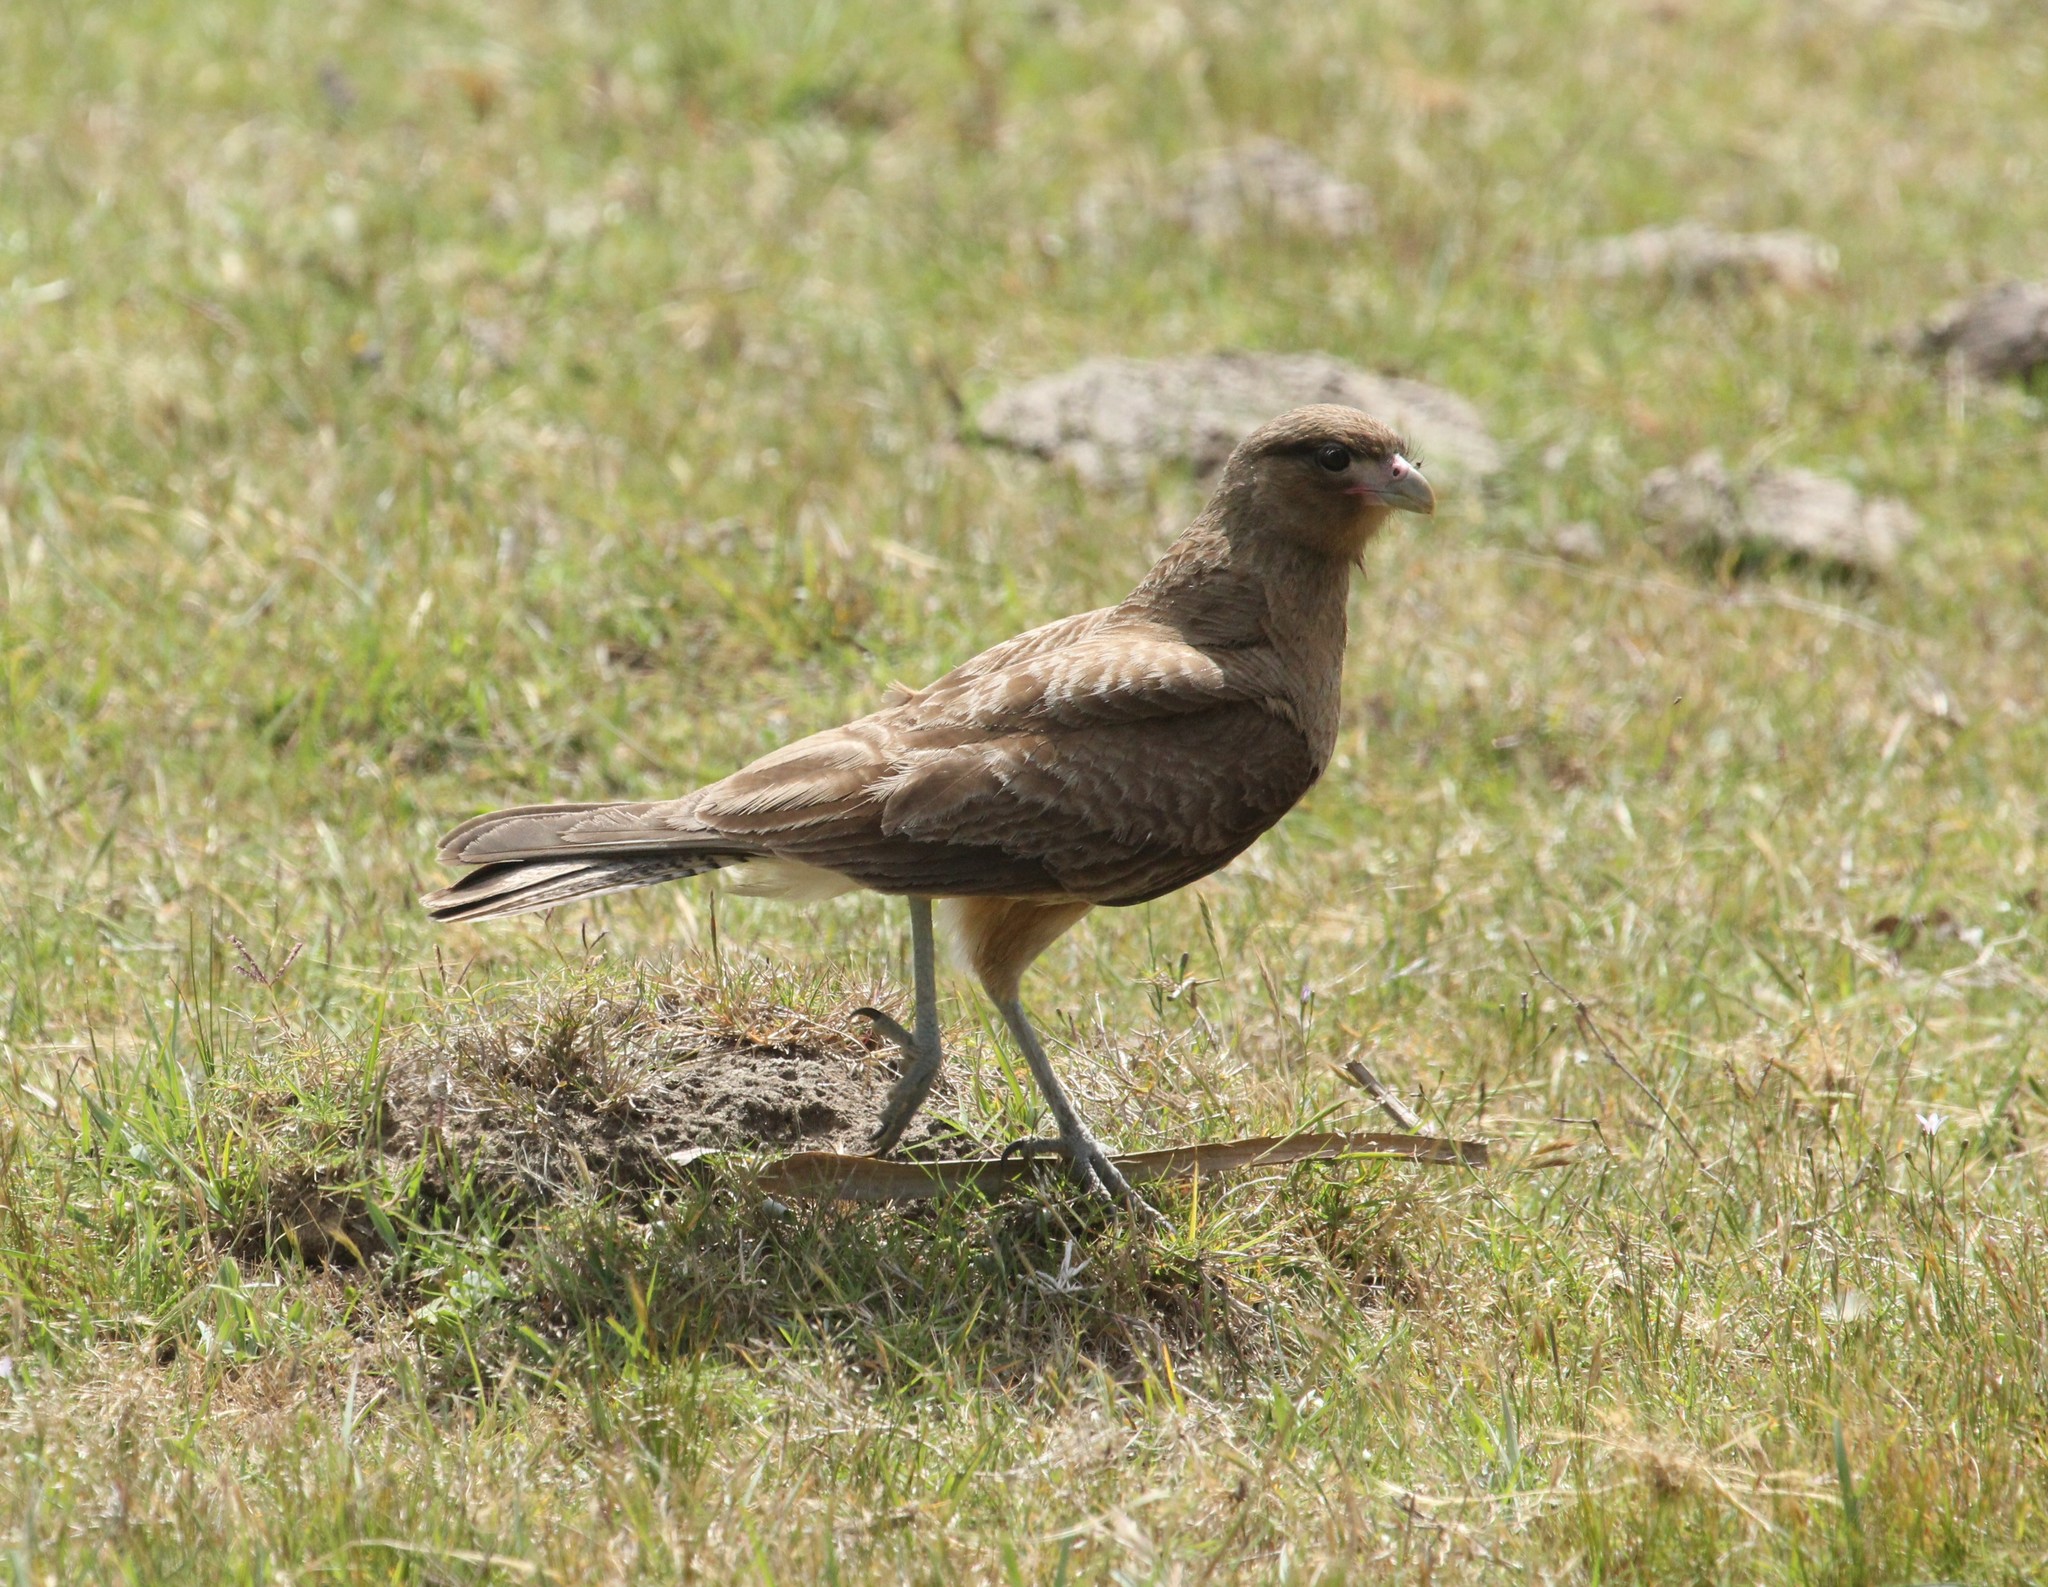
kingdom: Animalia
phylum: Chordata
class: Aves
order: Falconiformes
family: Falconidae
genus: Daptrius
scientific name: Daptrius
